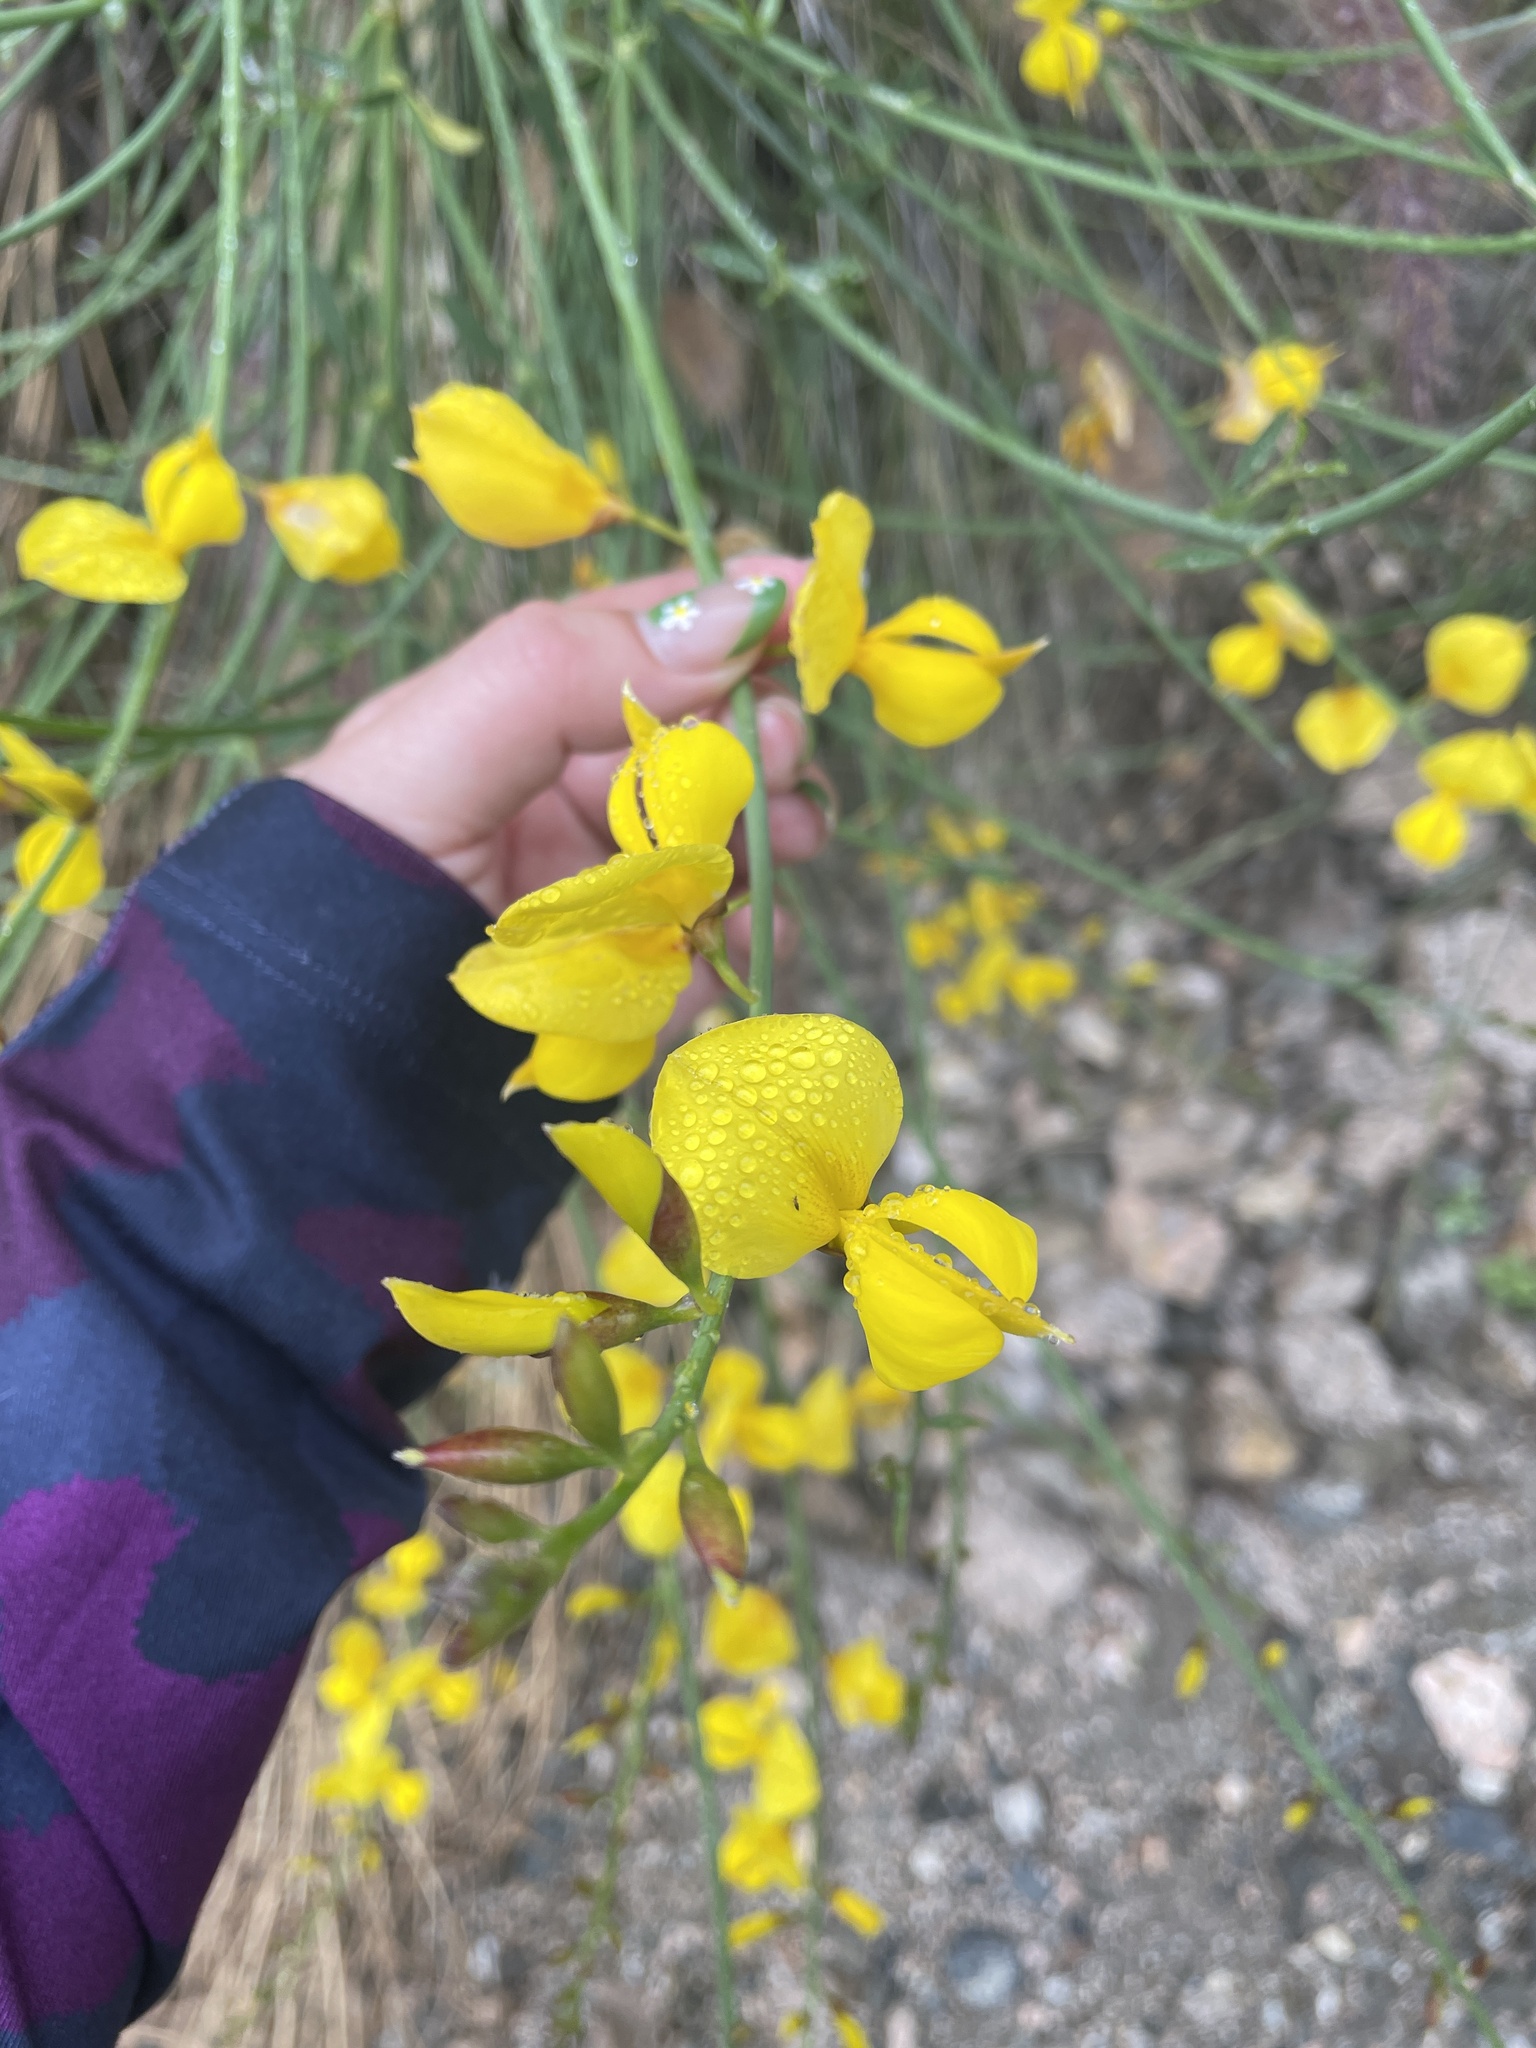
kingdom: Plantae
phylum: Tracheophyta
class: Magnoliopsida
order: Fabales
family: Fabaceae
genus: Spartium
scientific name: Spartium junceum
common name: Spanish broom
